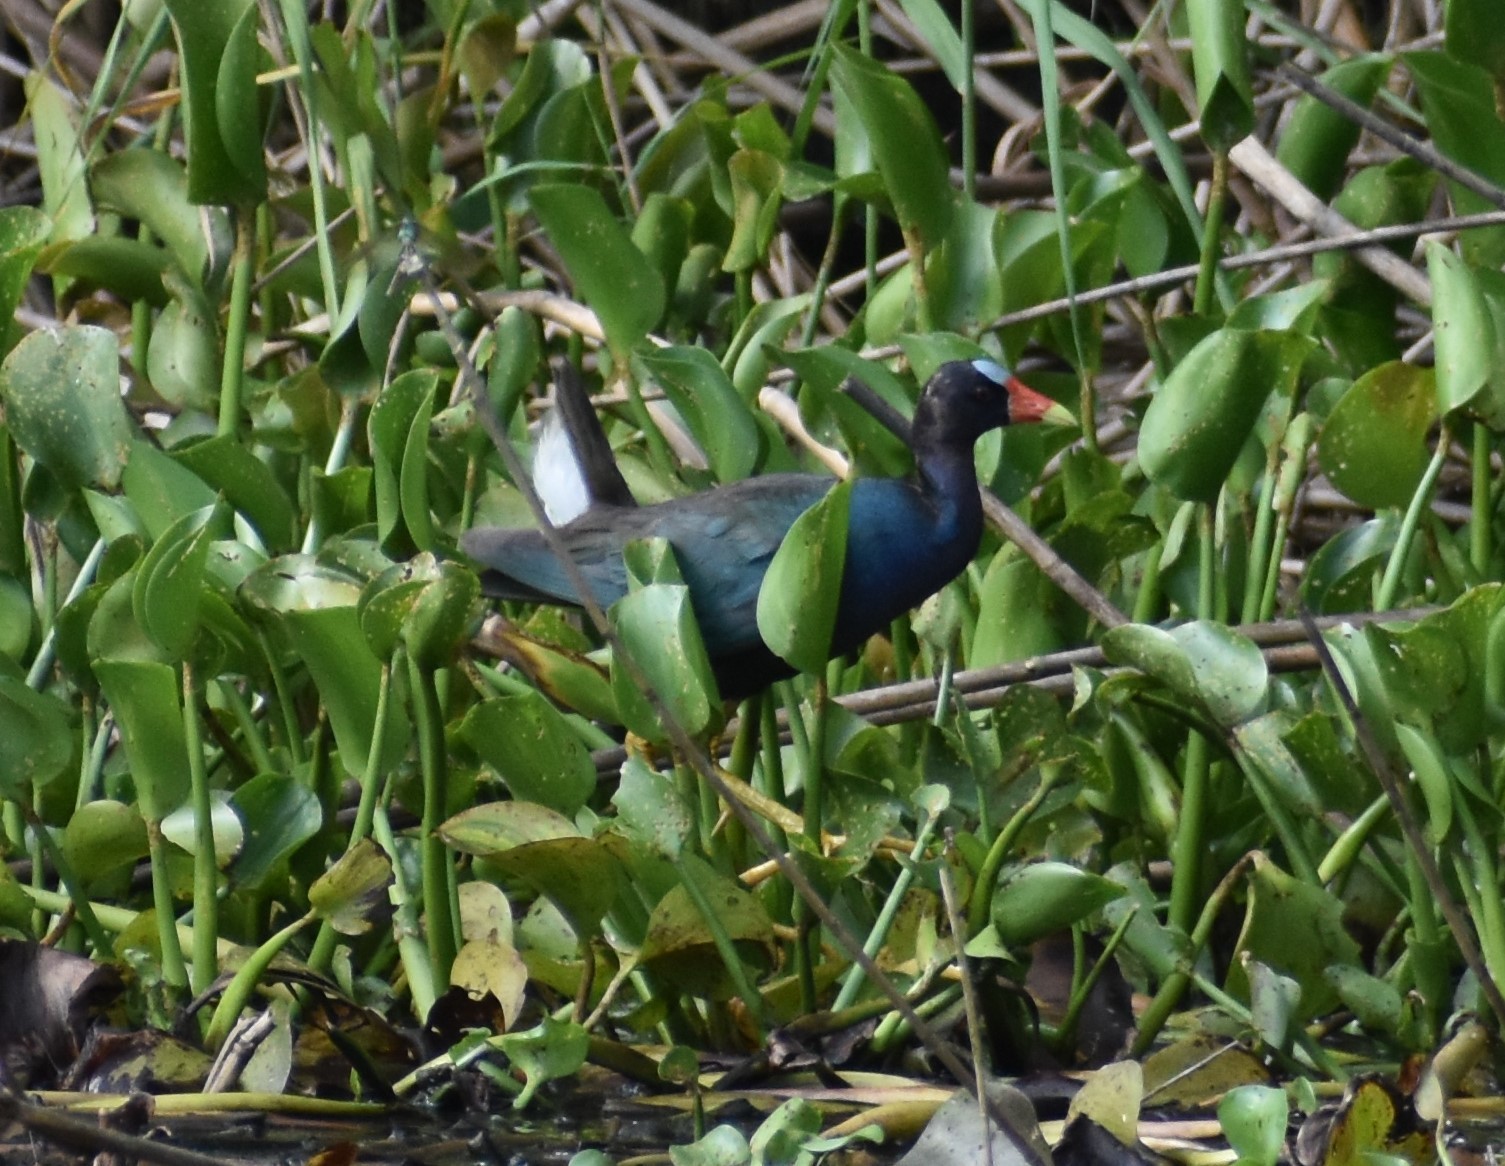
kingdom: Animalia
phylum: Chordata
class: Aves
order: Gruiformes
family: Rallidae
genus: Porphyrio
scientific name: Porphyrio martinica
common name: Purple gallinule
